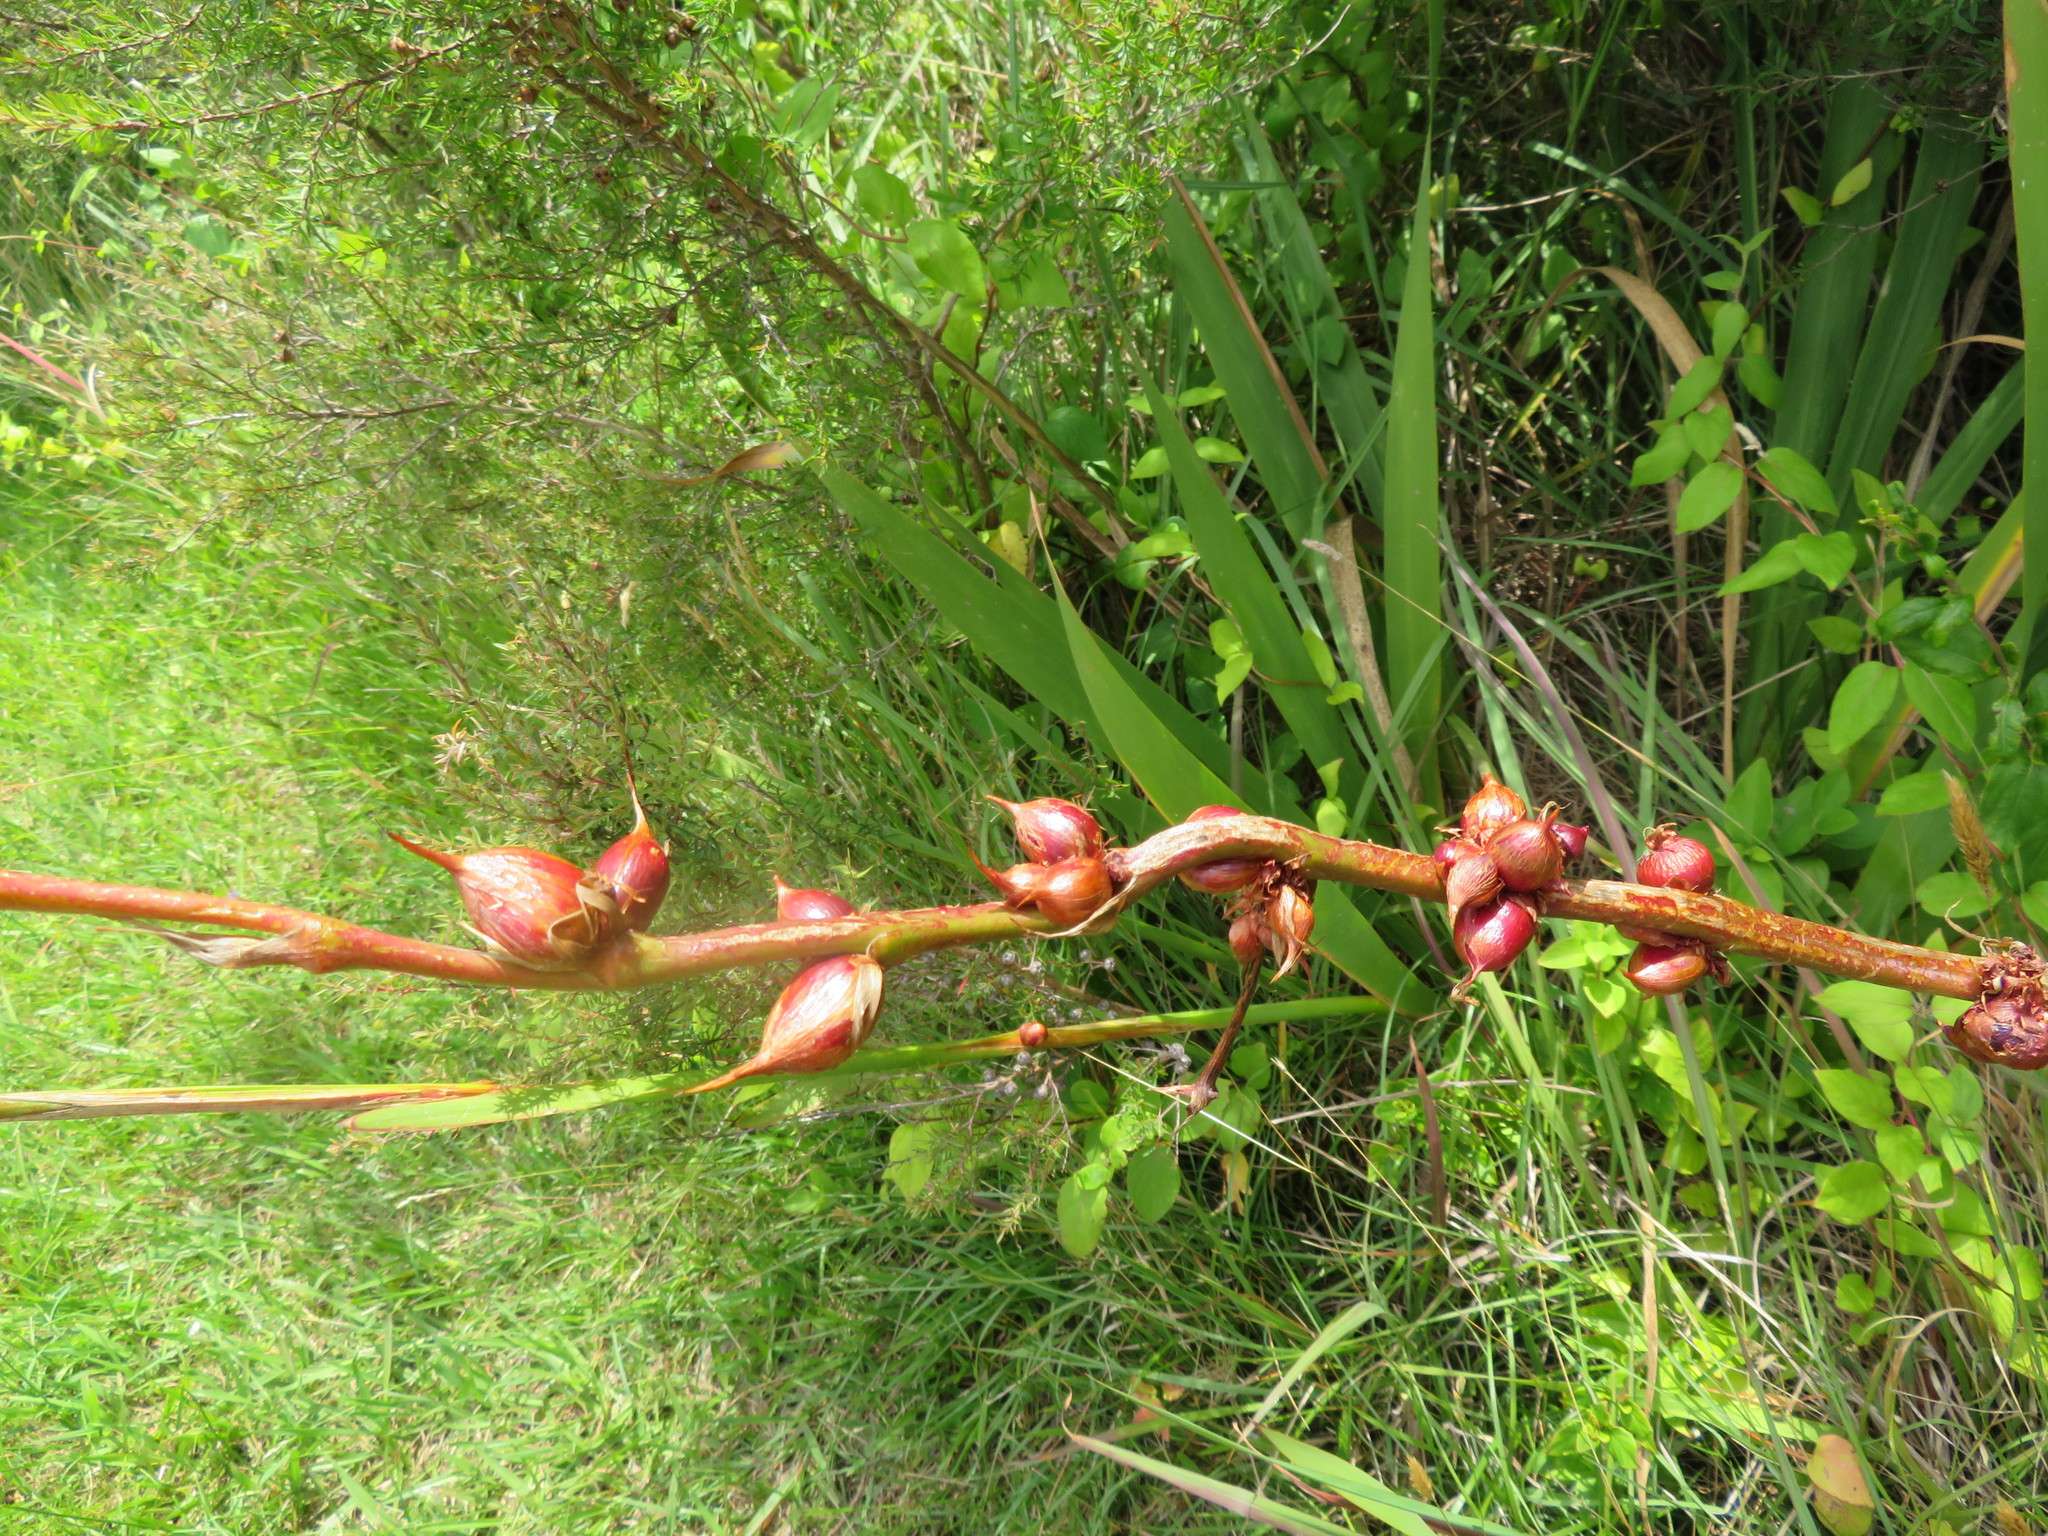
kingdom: Plantae
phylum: Tracheophyta
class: Liliopsida
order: Asparagales
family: Iridaceae
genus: Watsonia
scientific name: Watsonia meriana
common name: Bulbil bugle-lily
